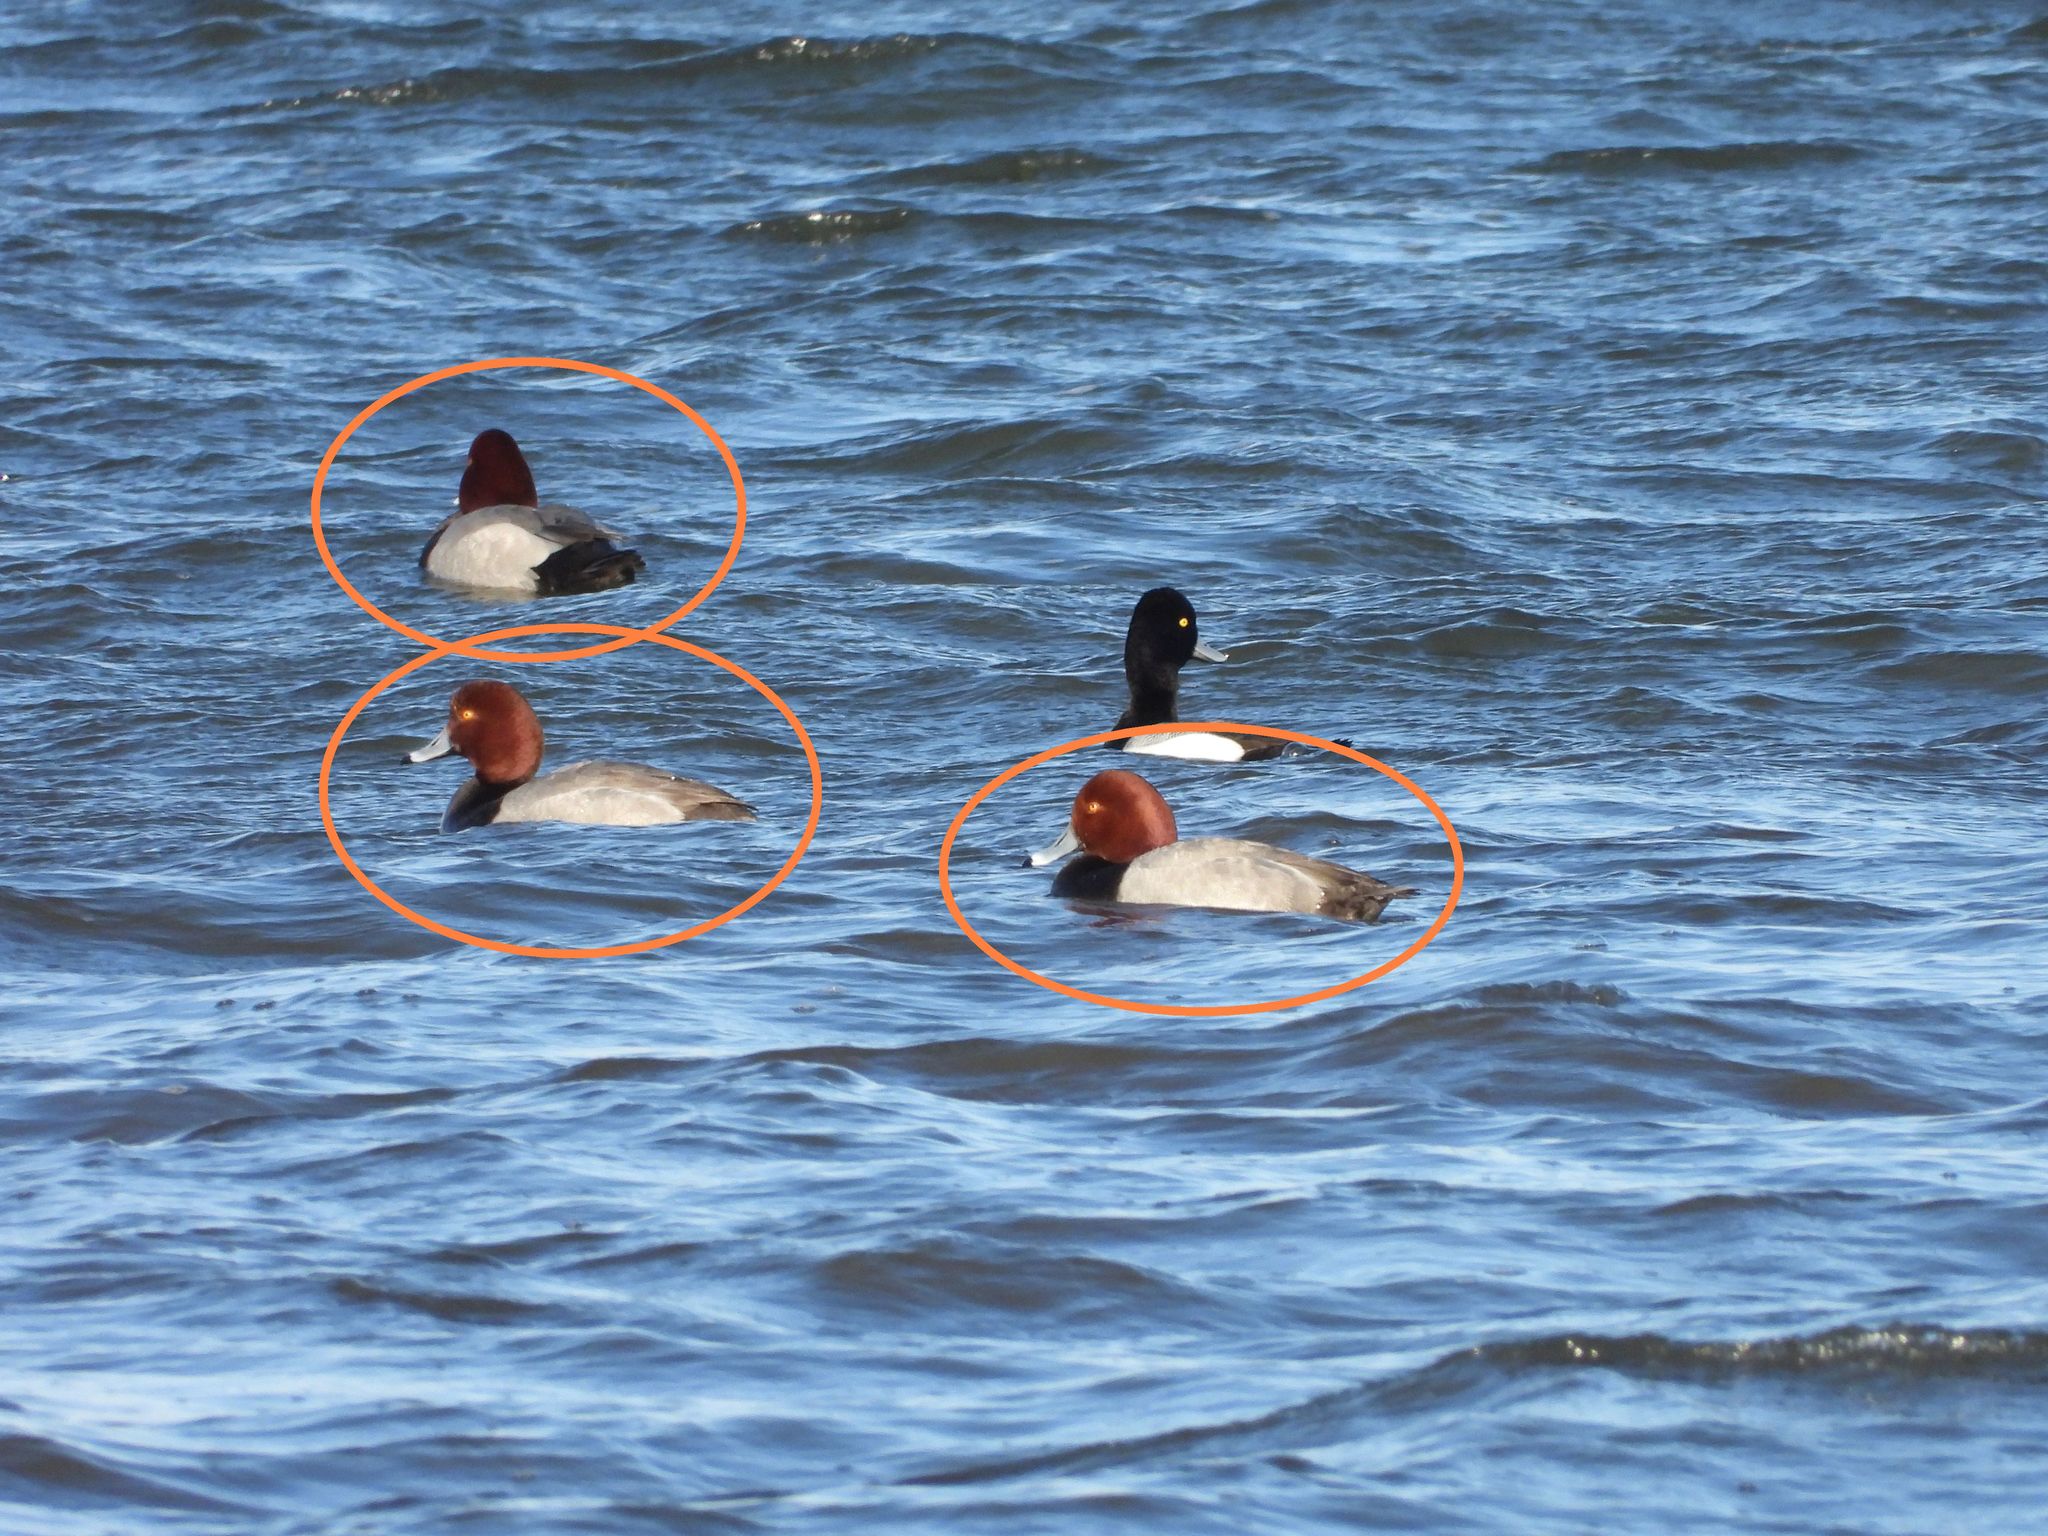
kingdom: Animalia
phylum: Chordata
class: Aves
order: Anseriformes
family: Anatidae
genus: Aythya
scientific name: Aythya americana
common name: Redhead
